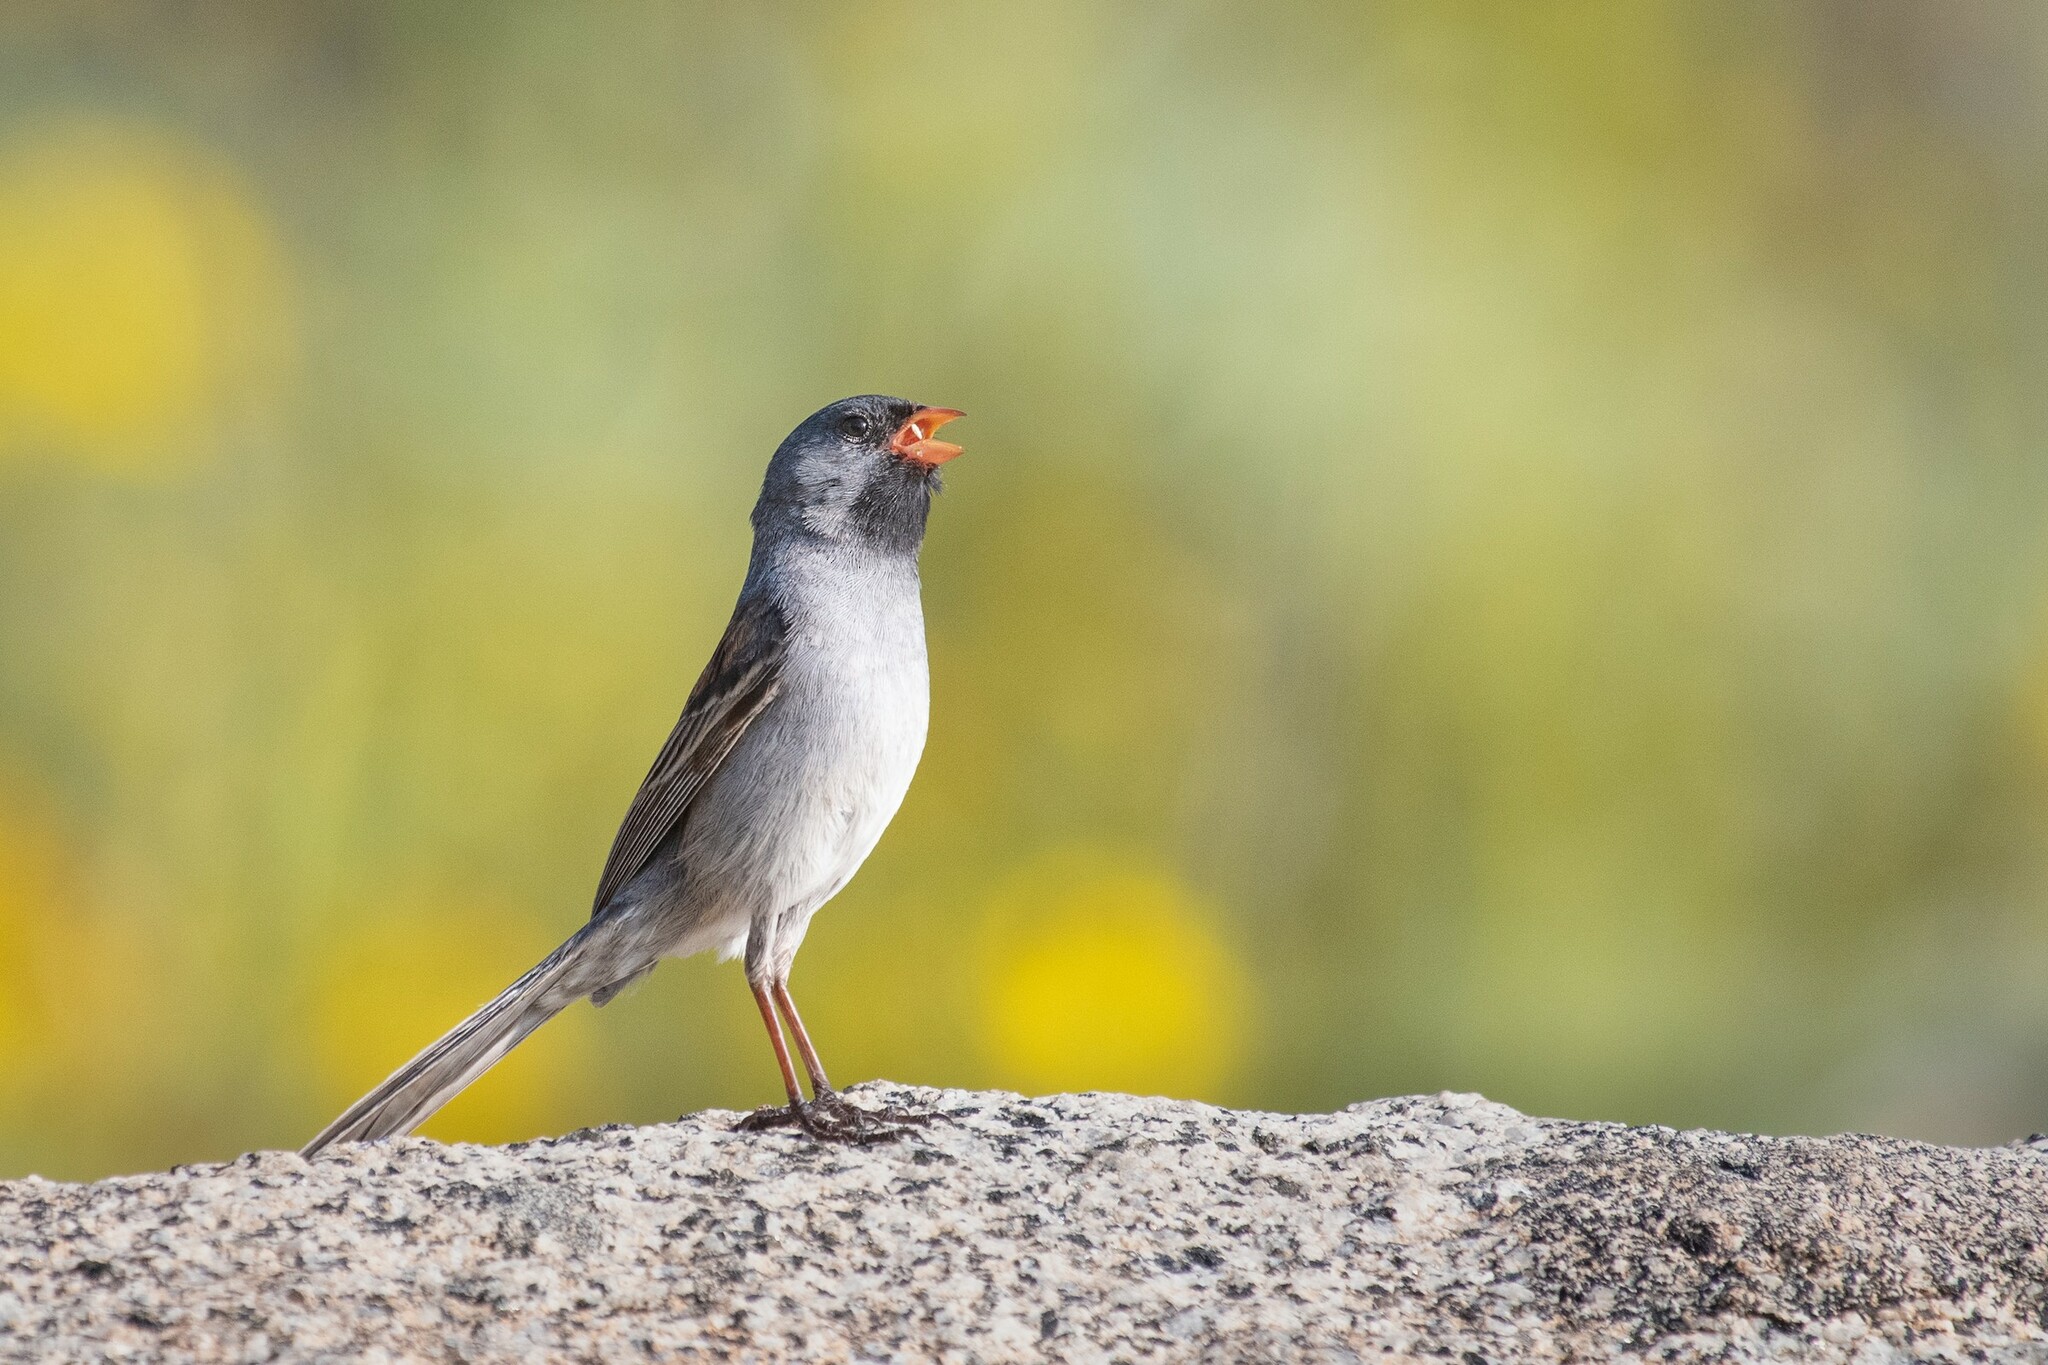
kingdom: Animalia
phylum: Chordata
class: Aves
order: Passeriformes
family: Passerellidae
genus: Spizella
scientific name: Spizella atrogularis
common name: Black-chinned sparrow
